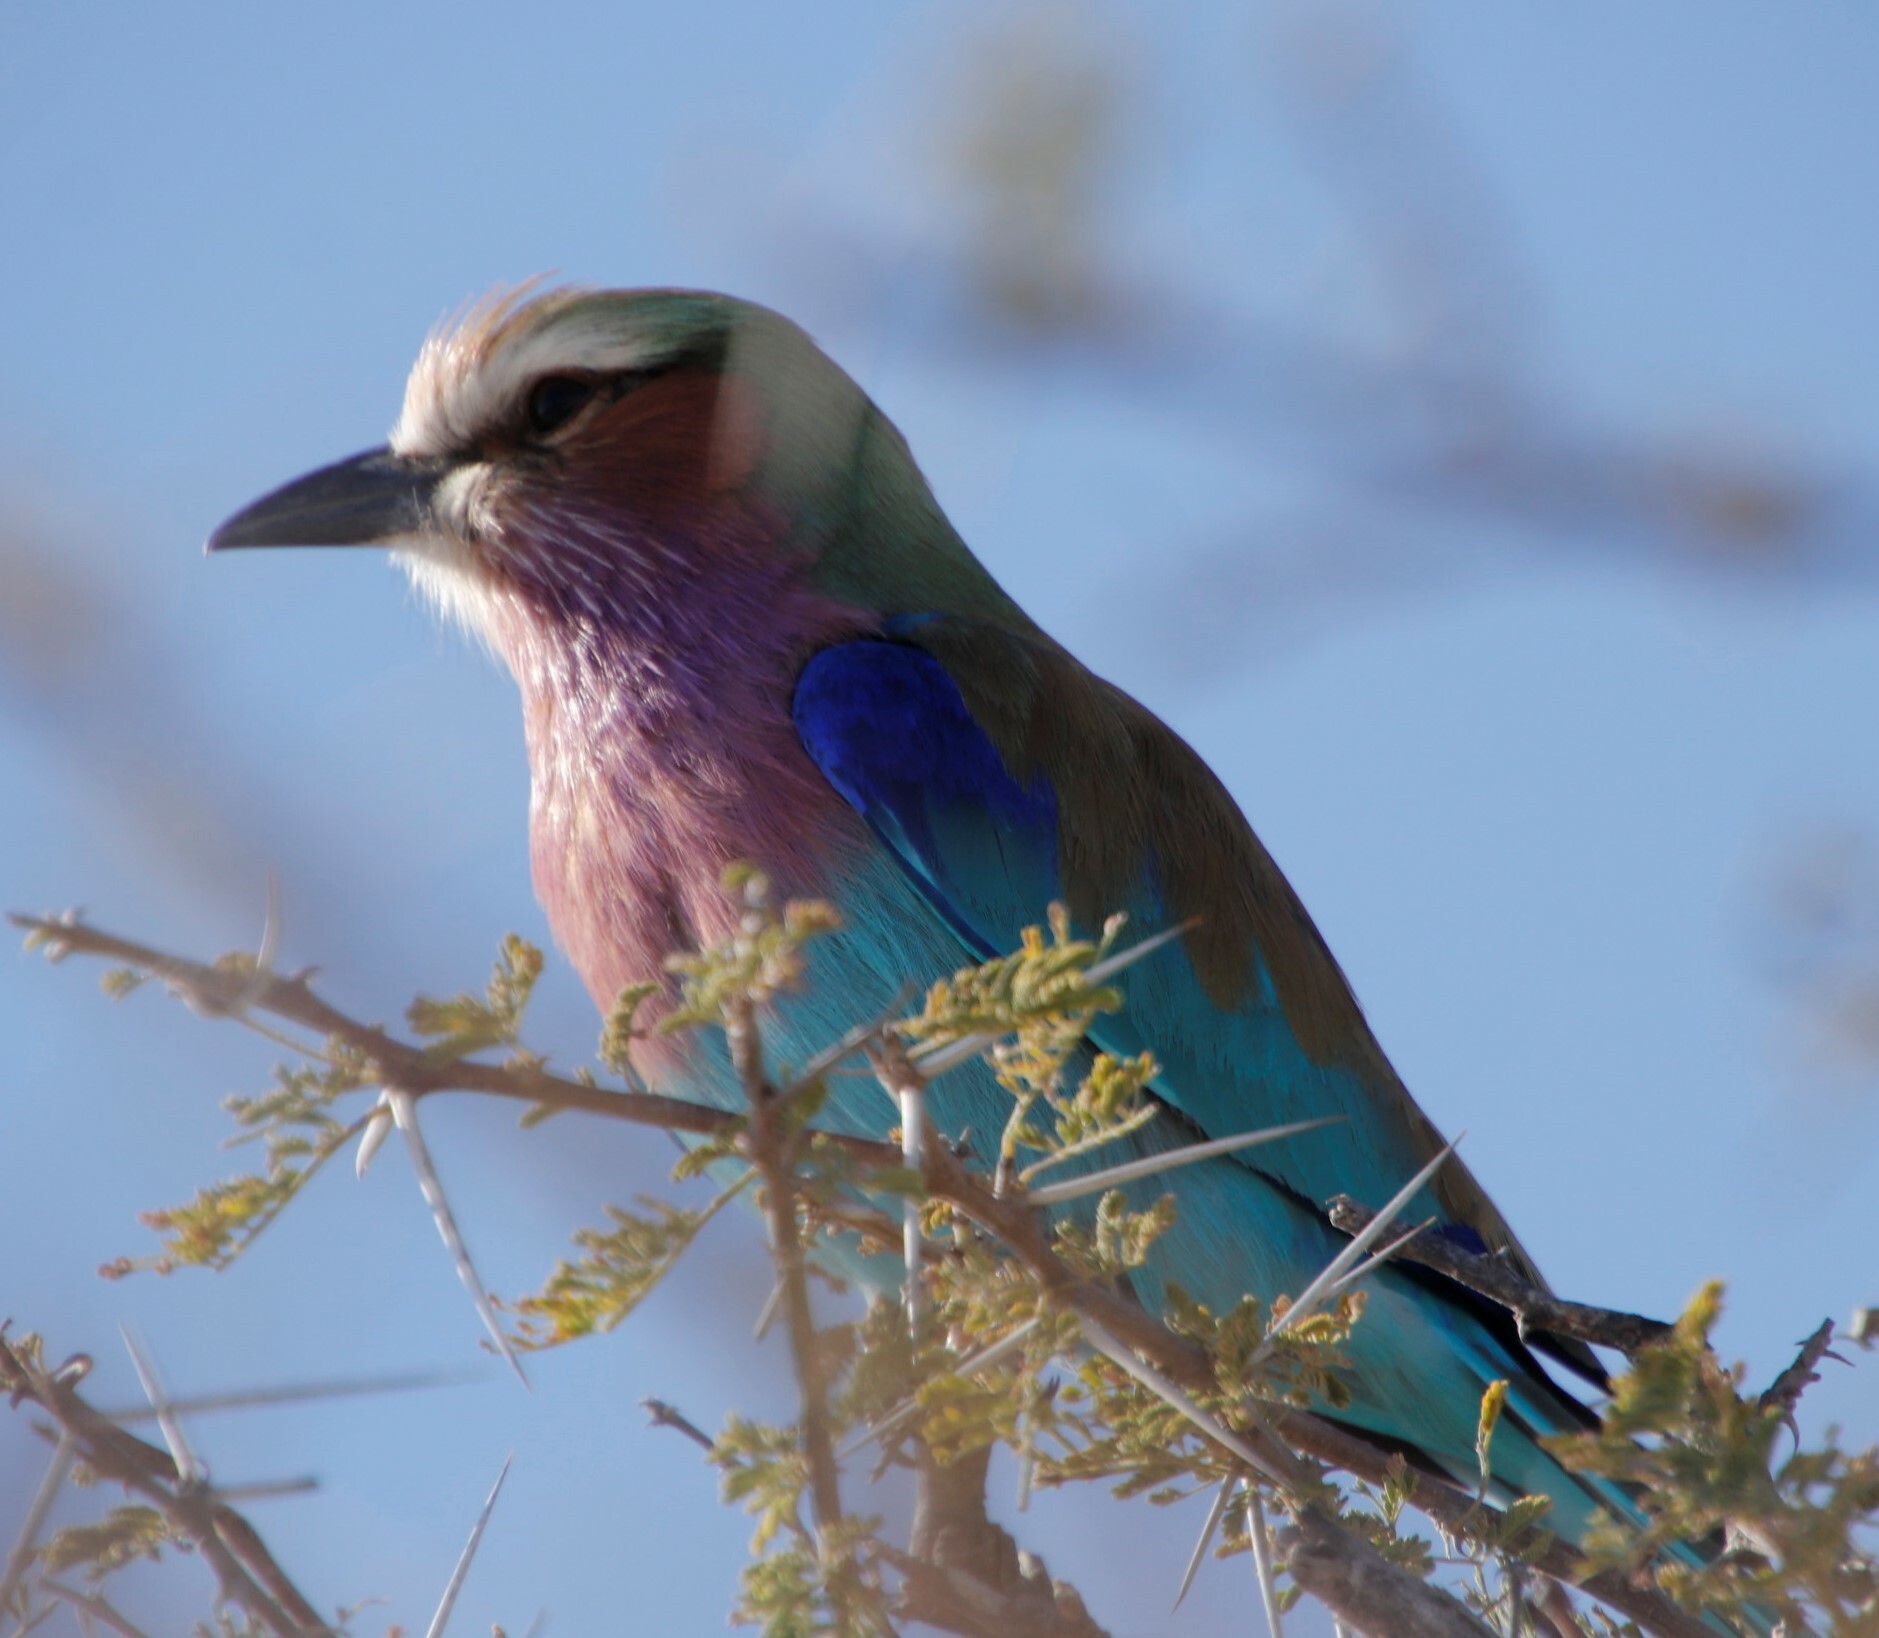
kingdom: Animalia
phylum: Chordata
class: Aves
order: Coraciiformes
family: Coraciidae
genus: Coracias
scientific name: Coracias caudatus
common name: Lilac-breasted roller
